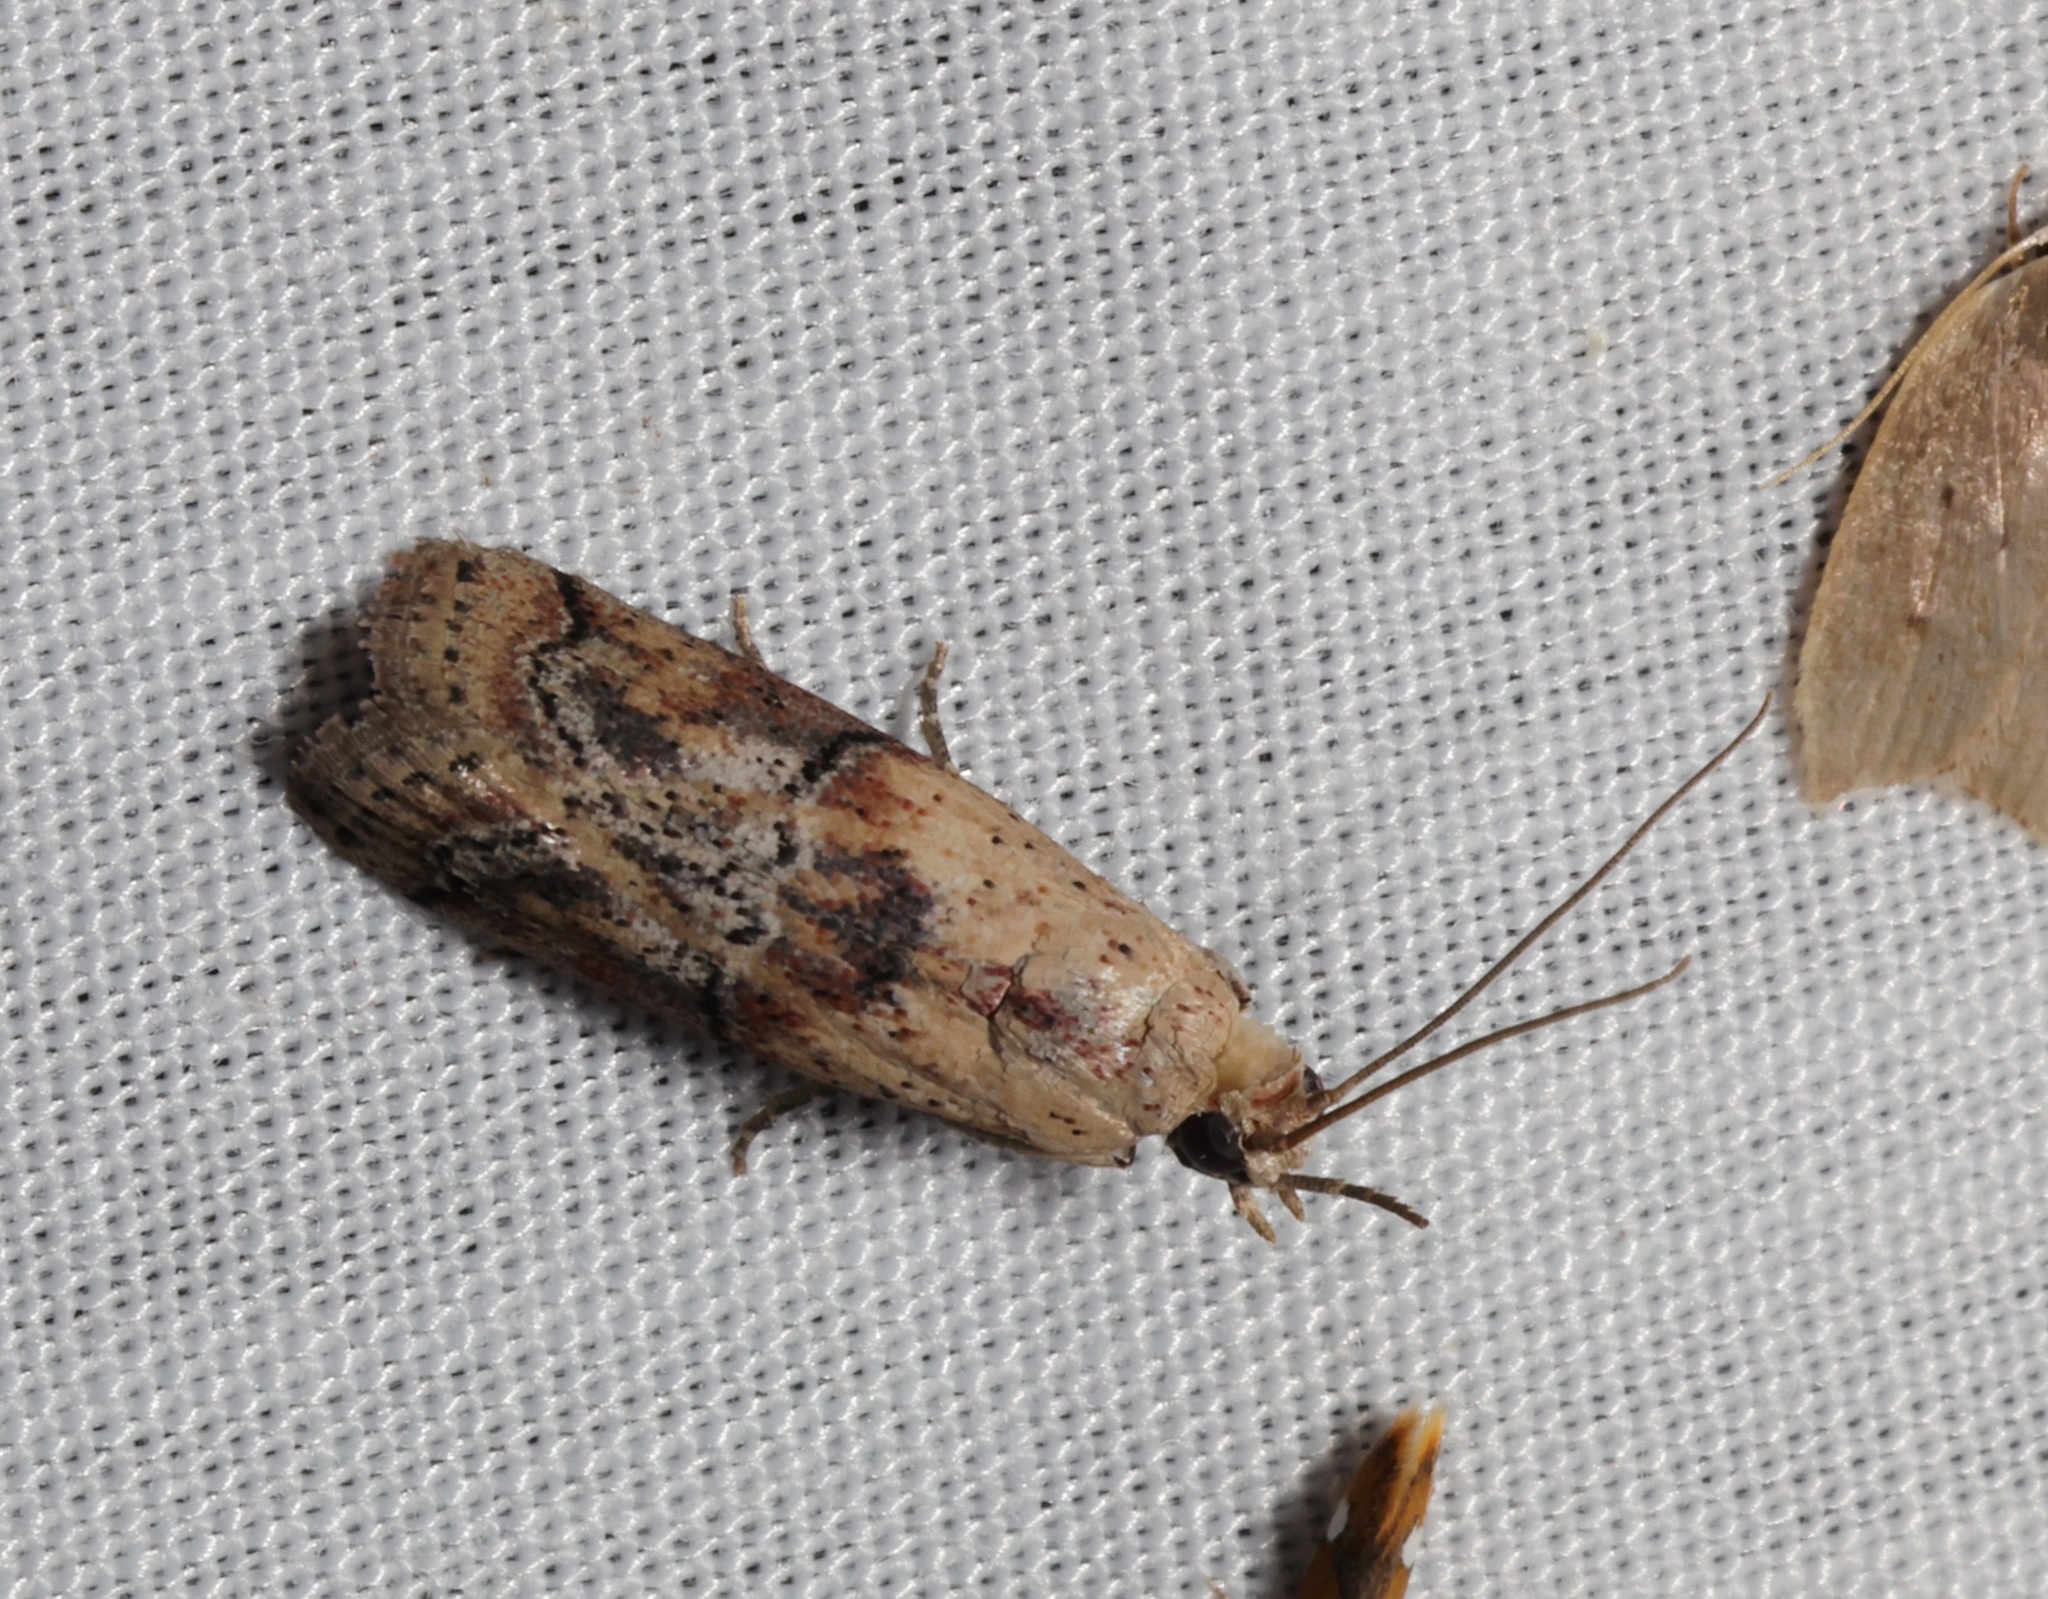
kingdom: Animalia
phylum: Arthropoda
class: Insecta
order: Lepidoptera
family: Pyralidae
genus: Nephopterix
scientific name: Nephopterix ochribasalis
